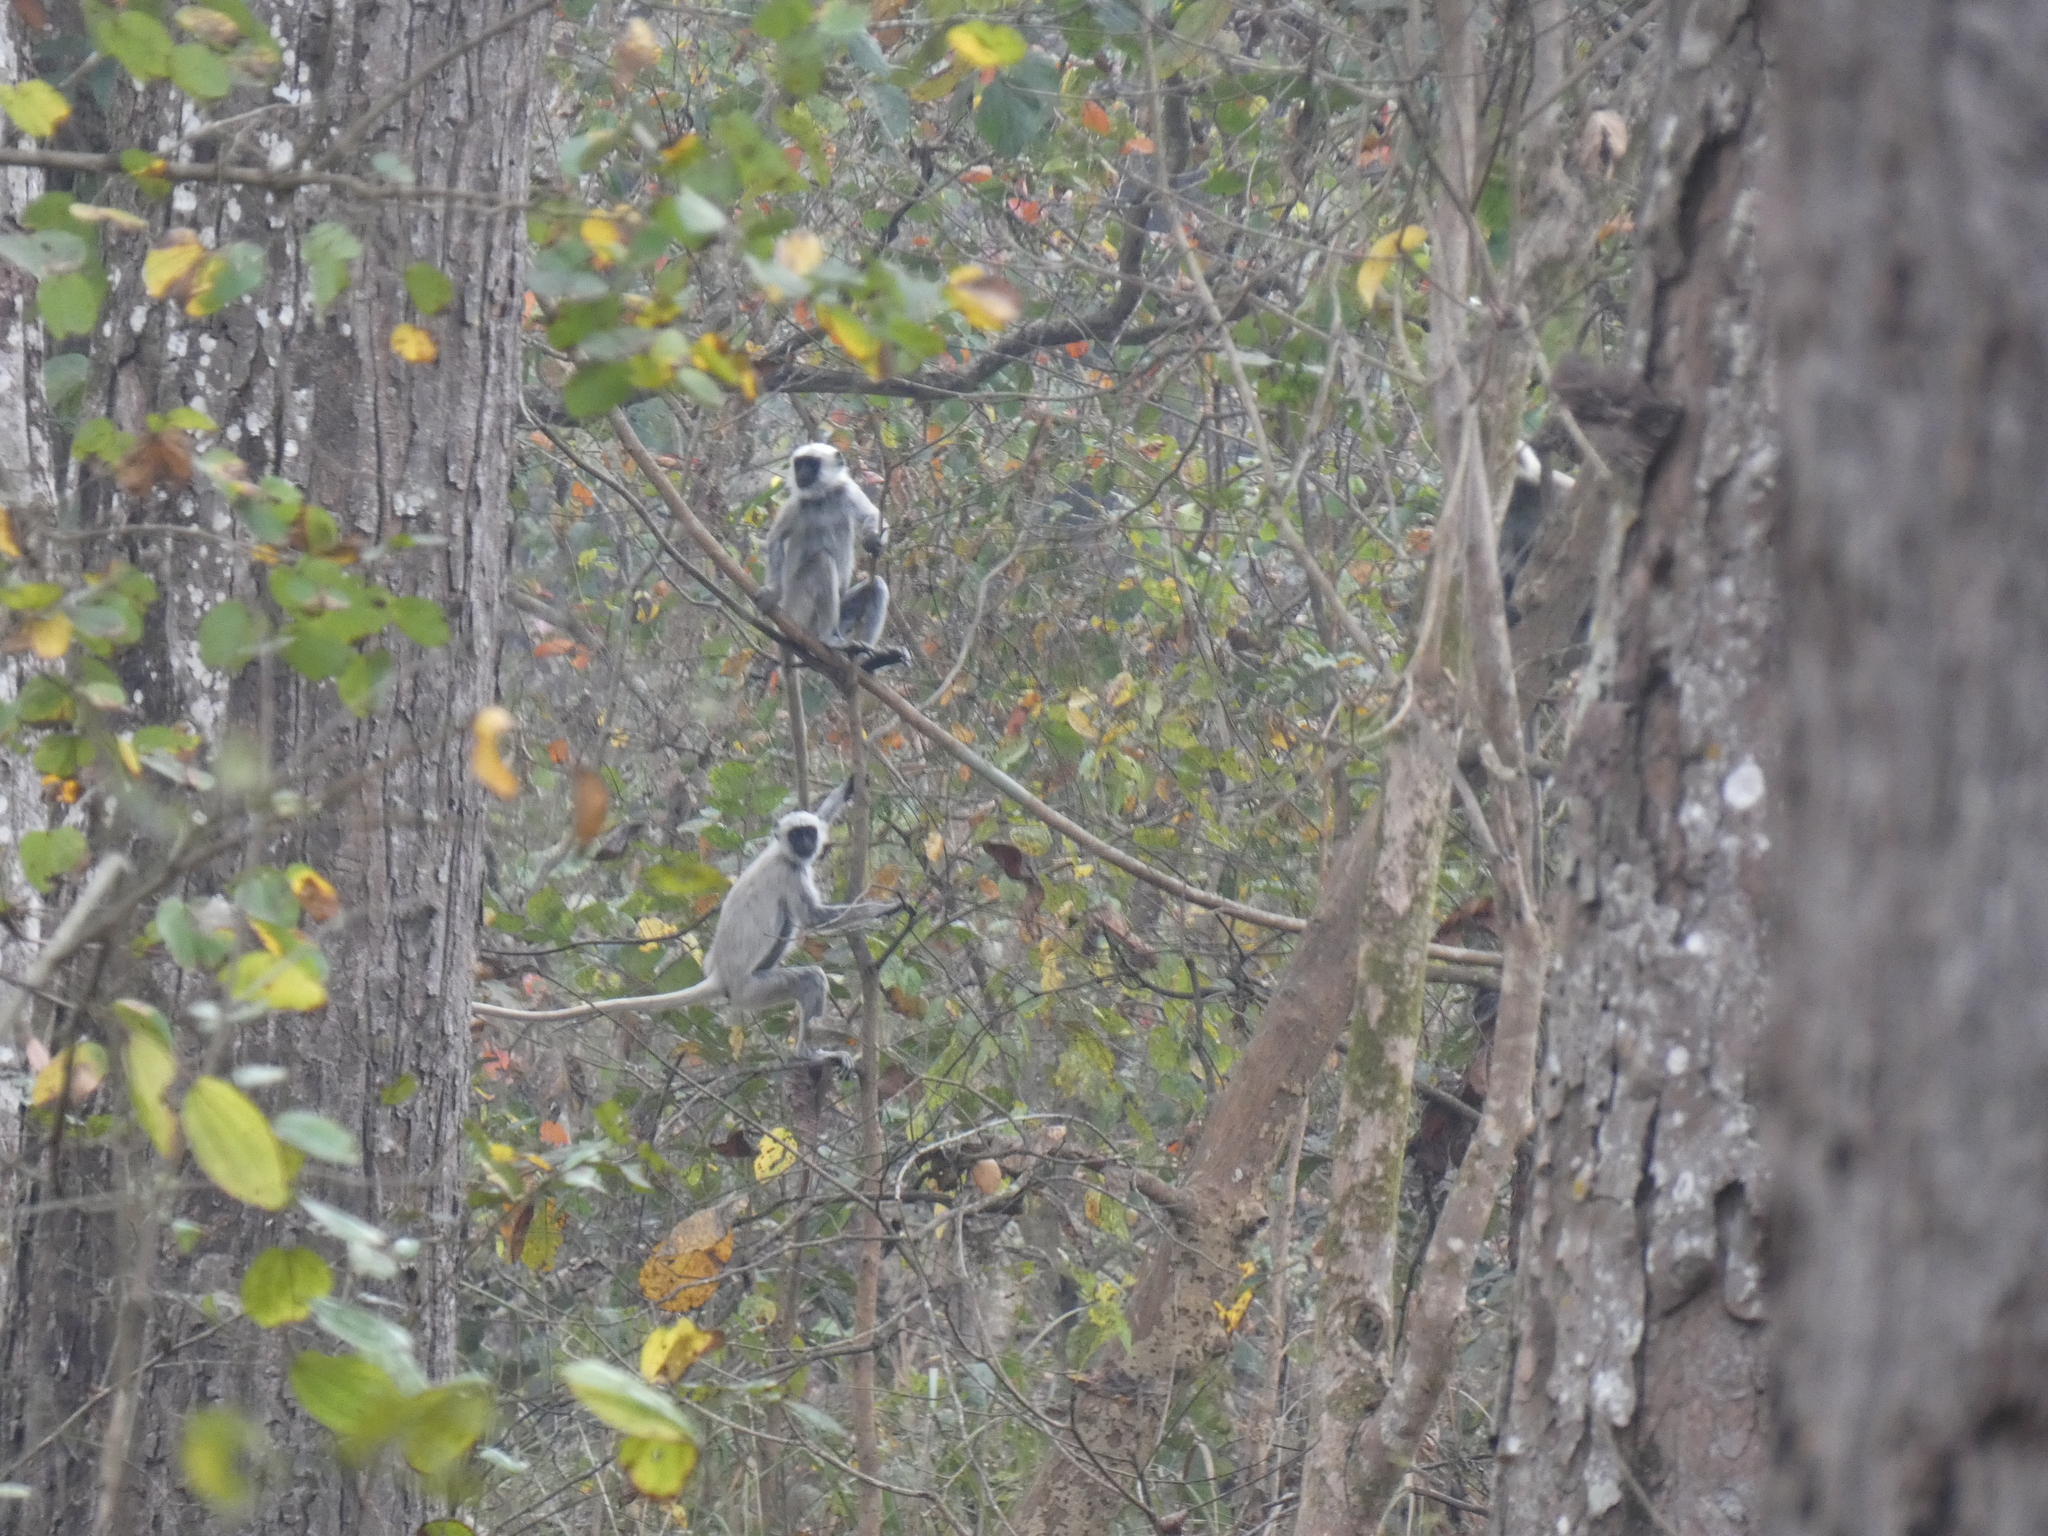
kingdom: Animalia
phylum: Chordata
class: Mammalia
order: Primates
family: Cercopithecidae
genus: Semnopithecus
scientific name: Semnopithecus schistaceus
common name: Nepal gray langur
